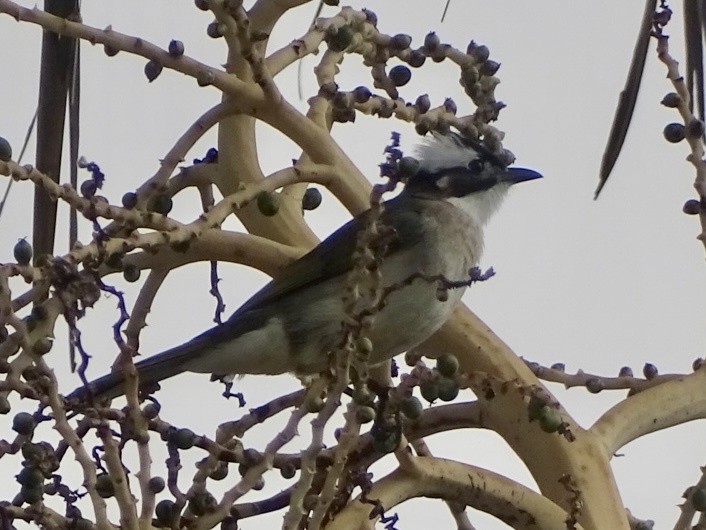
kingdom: Animalia
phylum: Chordata
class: Aves
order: Passeriformes
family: Pycnonotidae
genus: Pycnonotus
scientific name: Pycnonotus sinensis
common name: Light-vented bulbul
